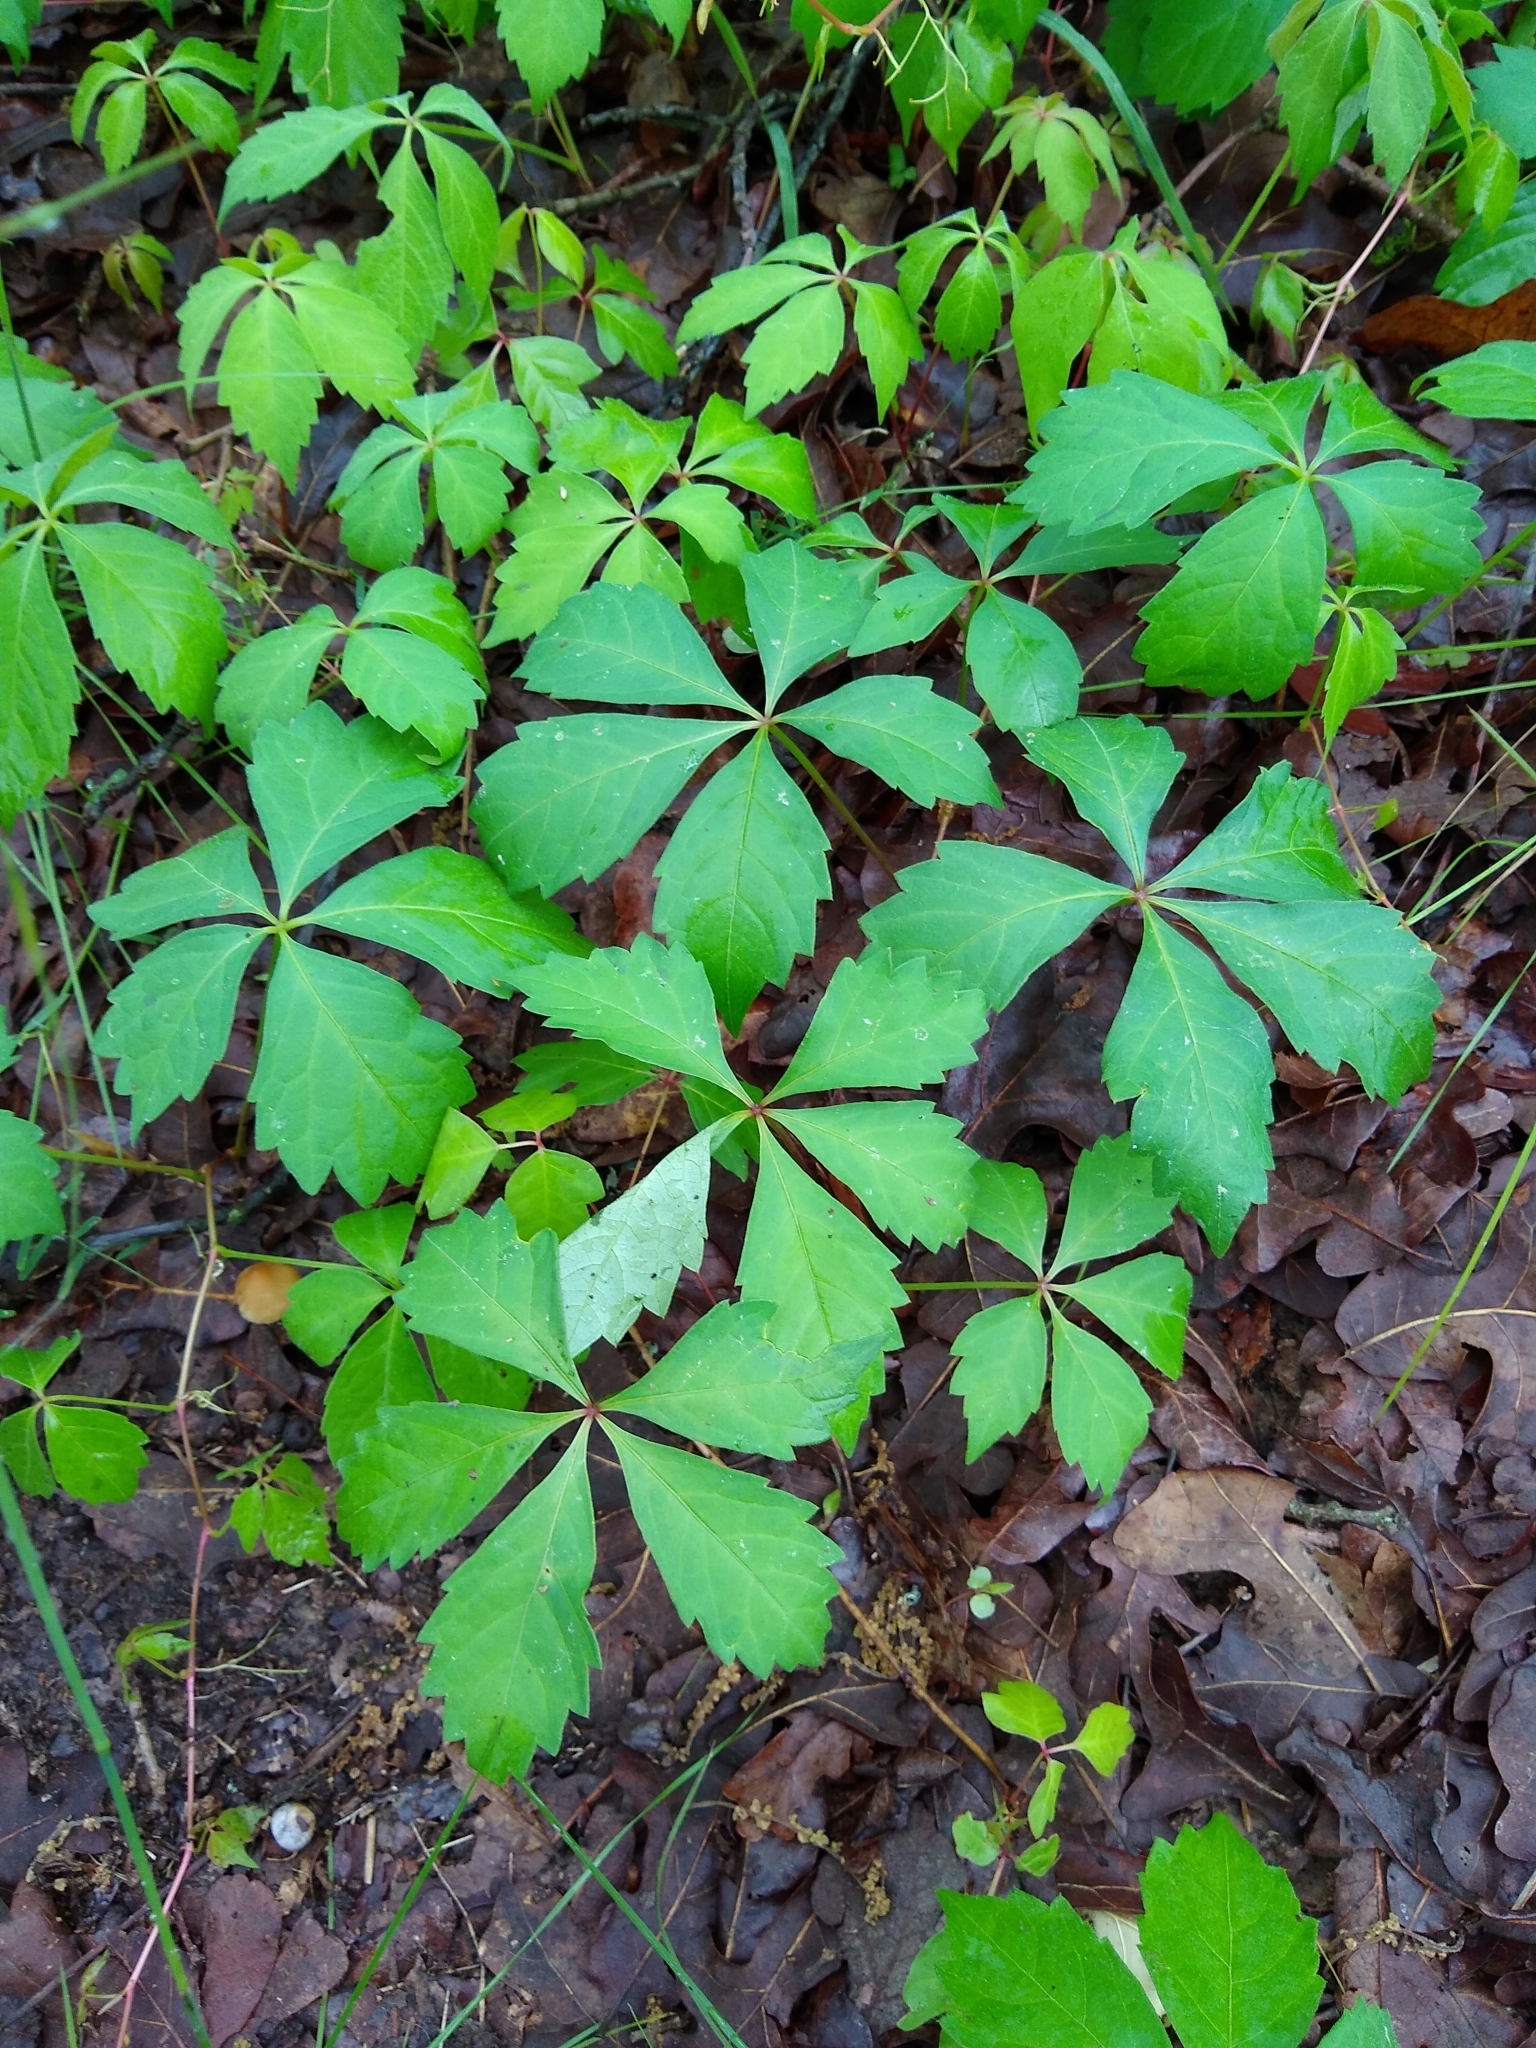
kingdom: Plantae
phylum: Tracheophyta
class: Magnoliopsida
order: Vitales
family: Vitaceae
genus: Parthenocissus
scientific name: Parthenocissus quinquefolia
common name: Virginia-creeper
